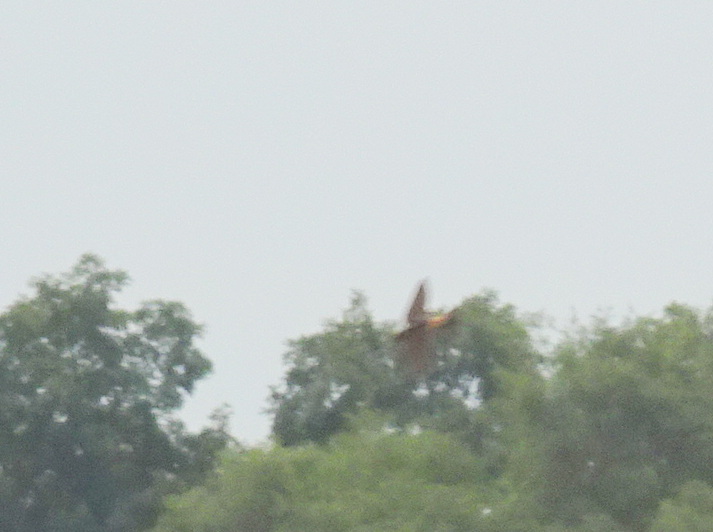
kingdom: Animalia
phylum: Chordata
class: Aves
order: Passeriformes
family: Hirundinidae
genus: Petrochelidon
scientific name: Petrochelidon pyrrhonota
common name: American cliff swallow
